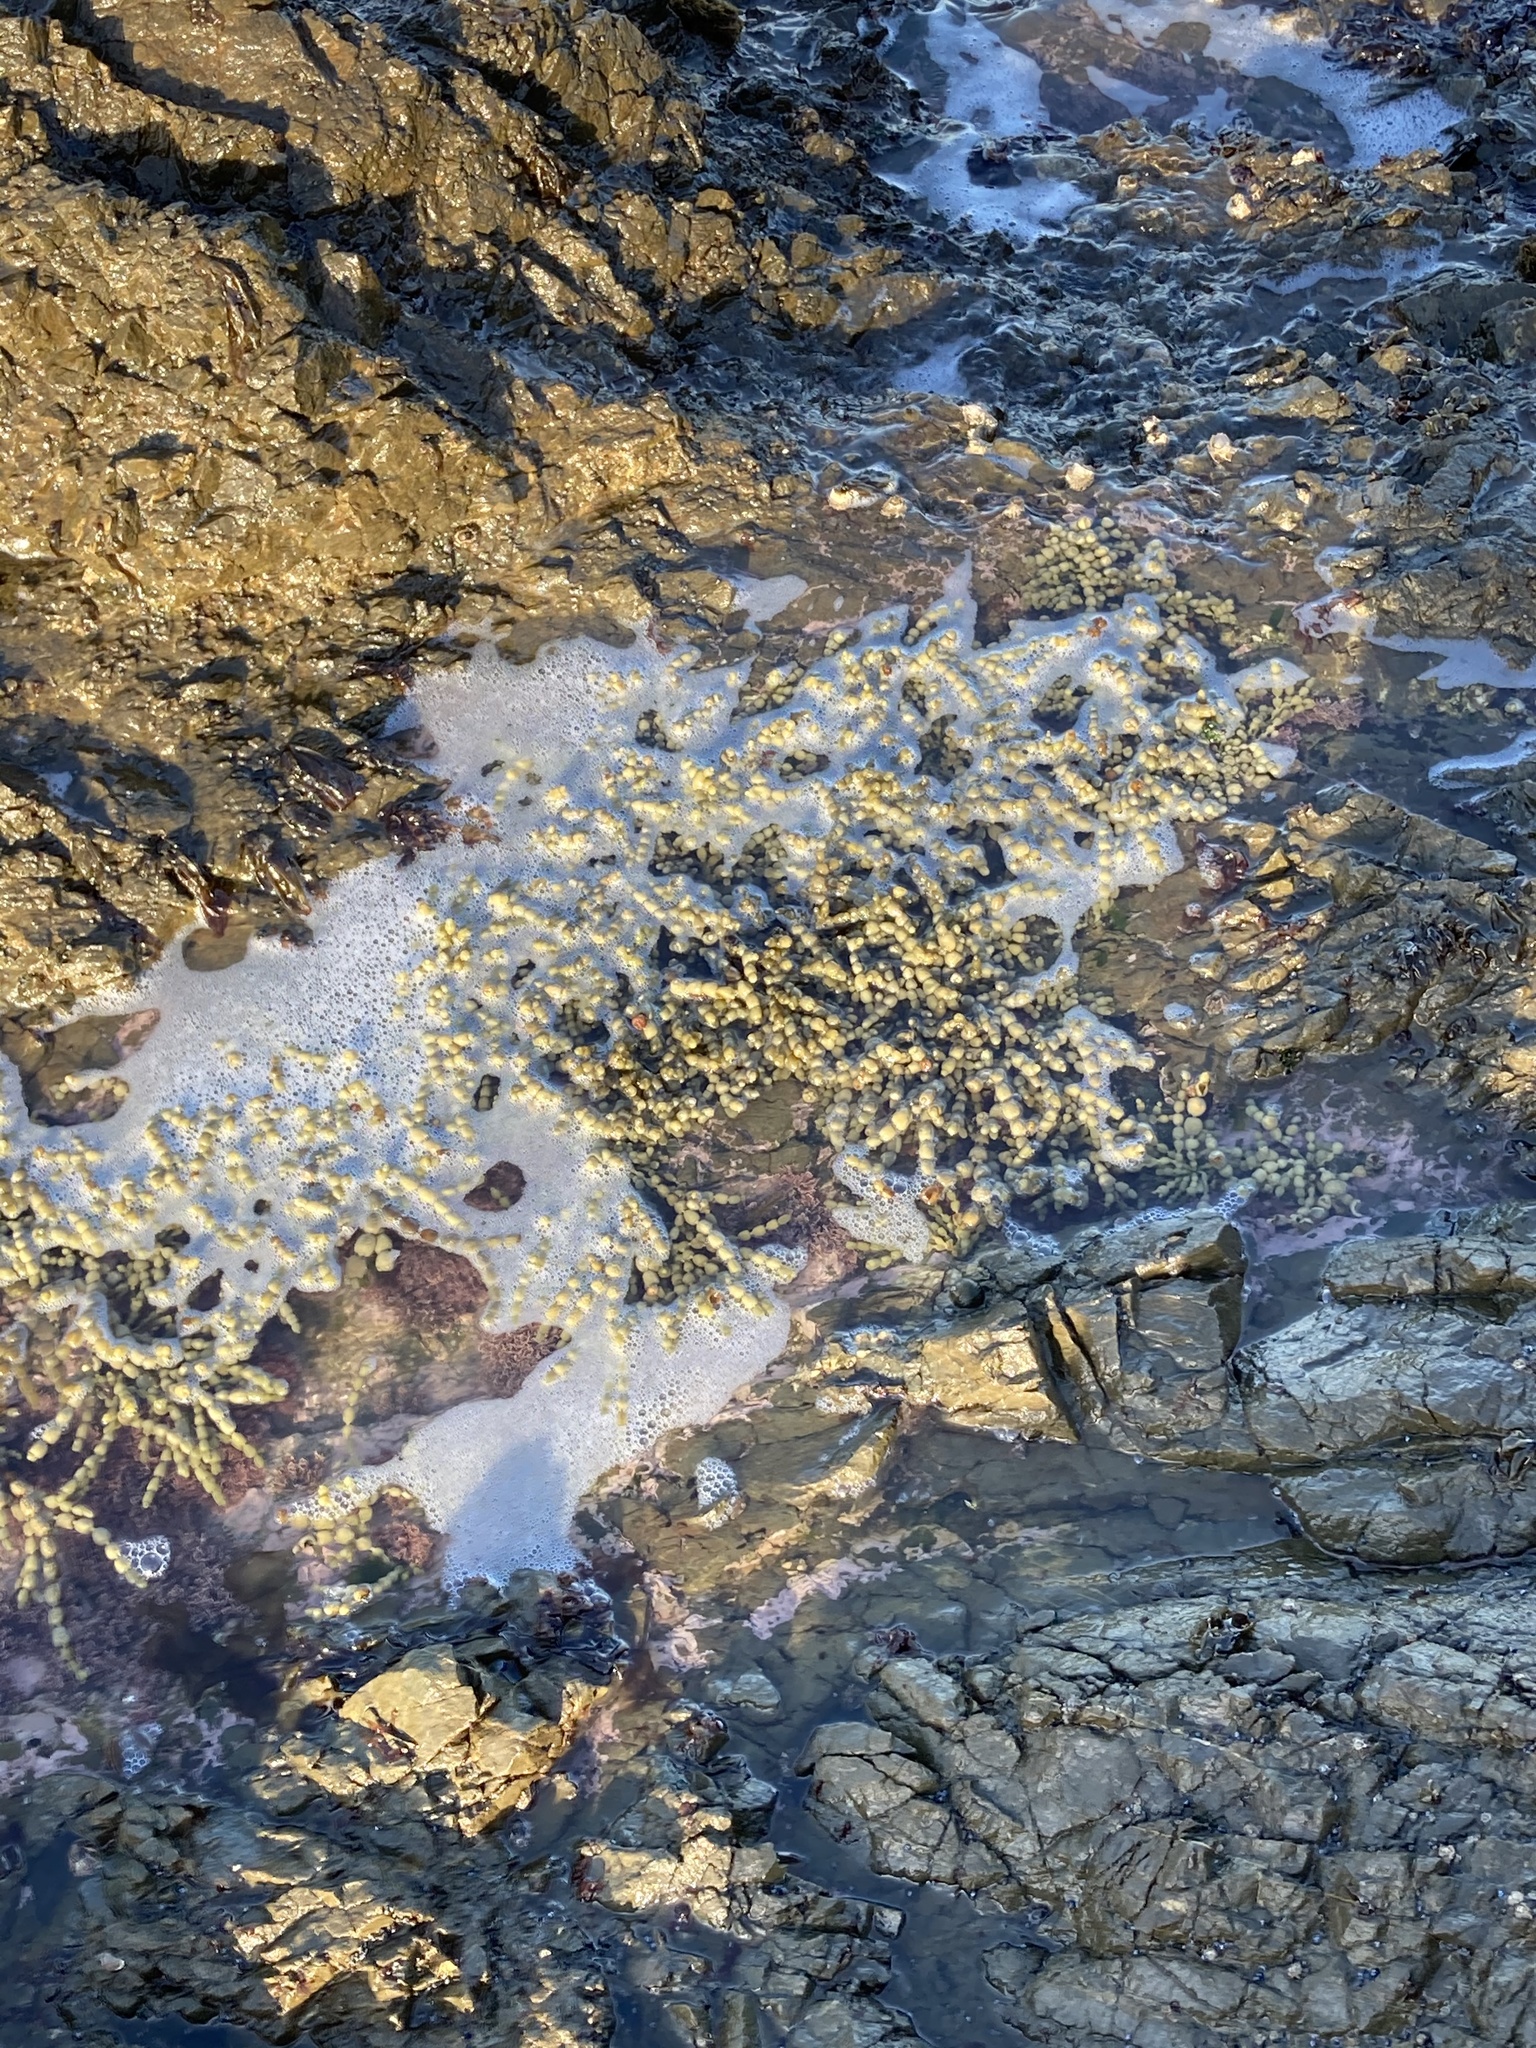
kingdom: Chromista
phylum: Ochrophyta
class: Phaeophyceae
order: Fucales
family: Hormosiraceae
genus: Hormosira
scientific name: Hormosira banksii
